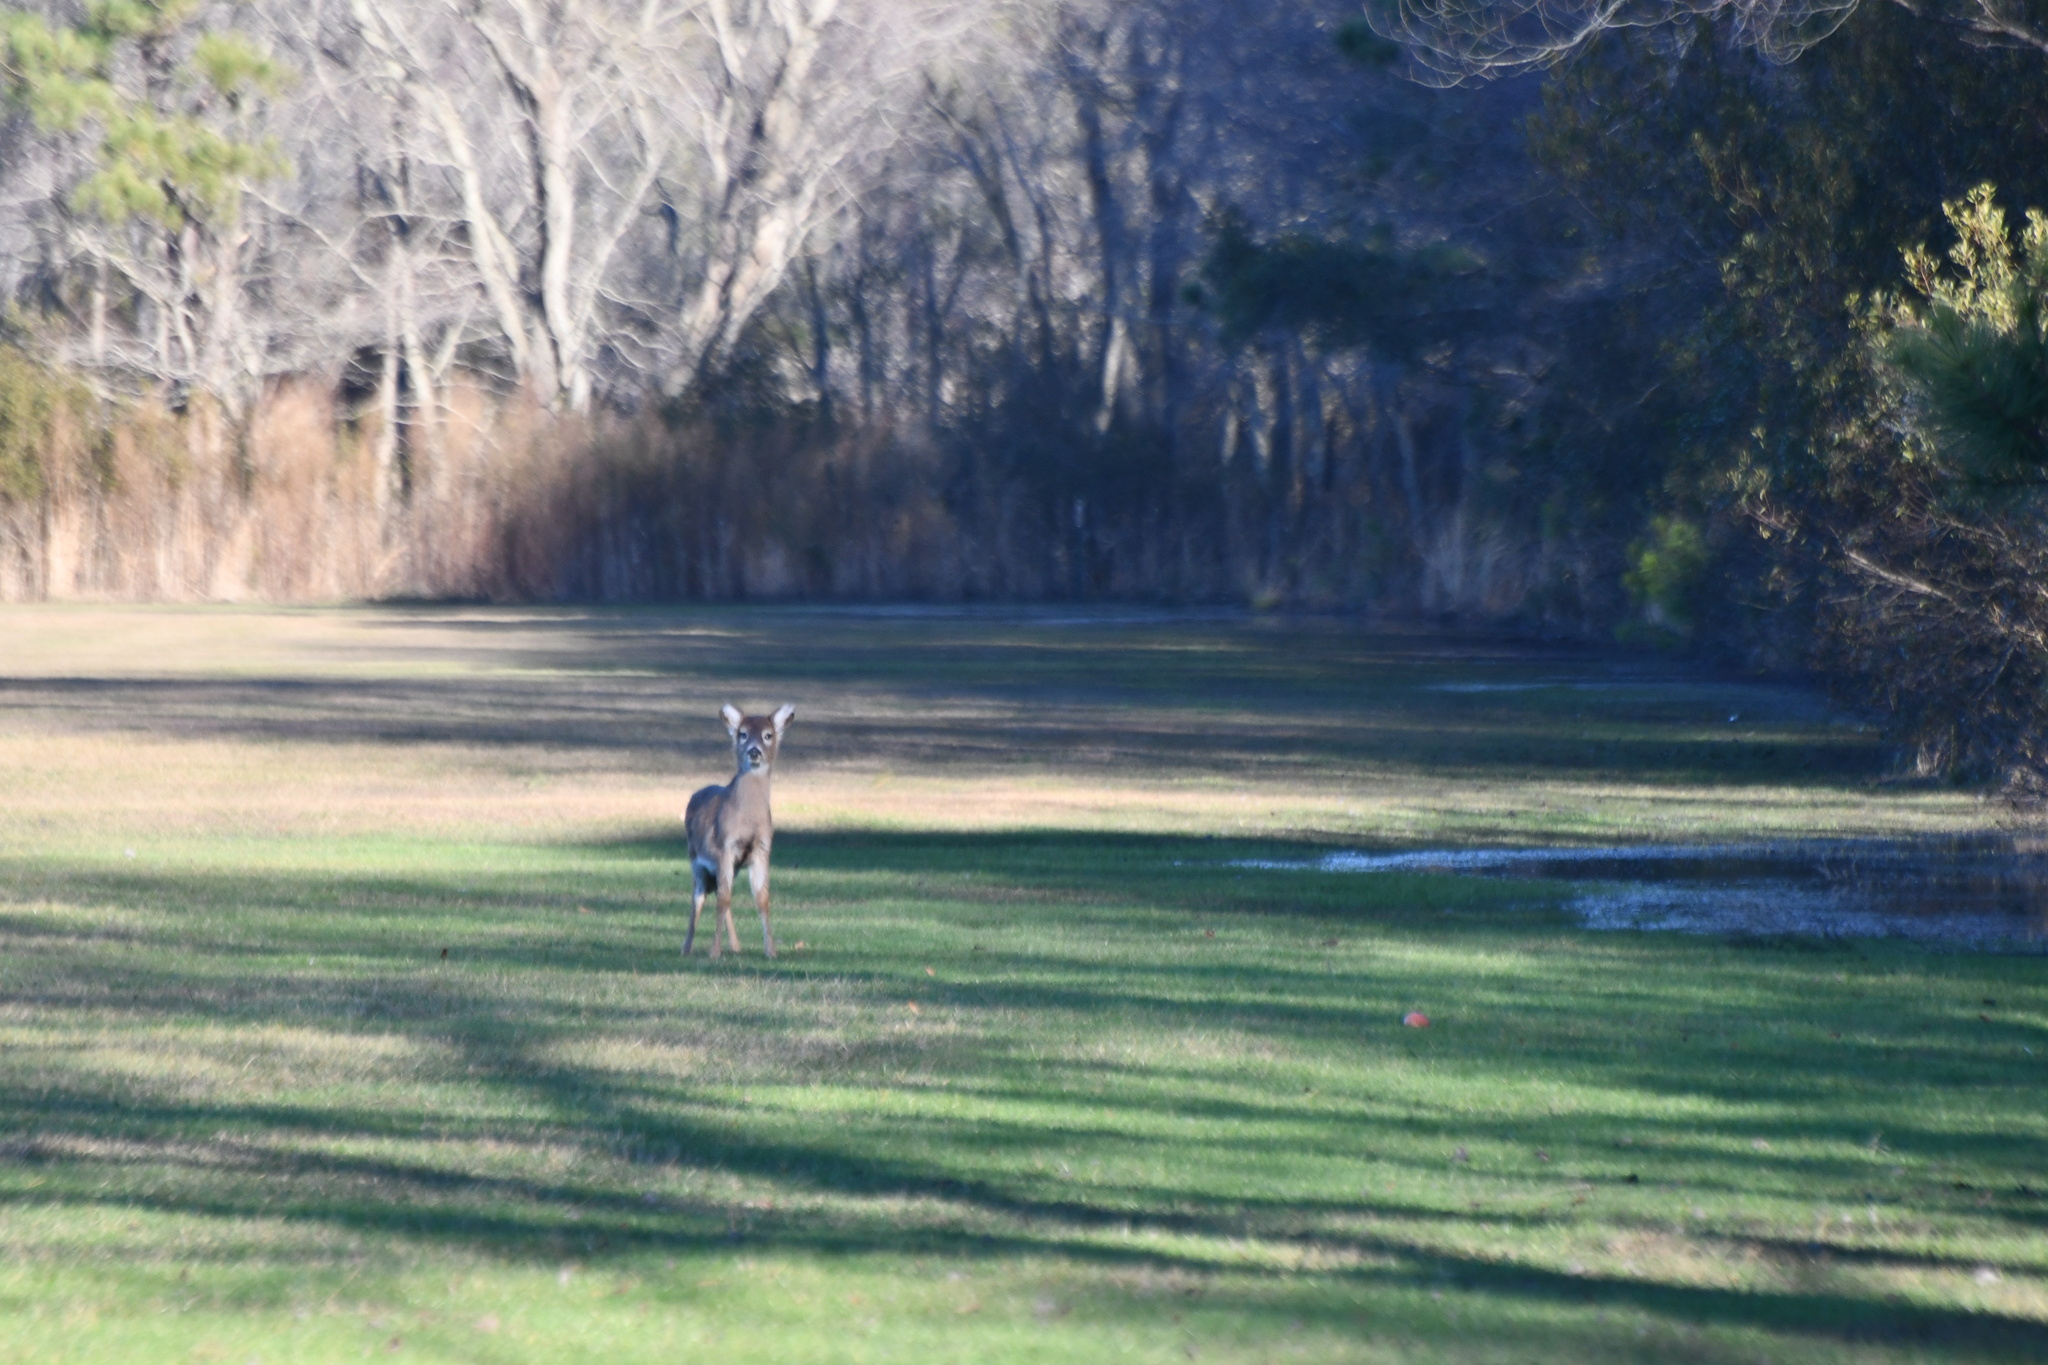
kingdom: Animalia
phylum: Chordata
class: Mammalia
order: Artiodactyla
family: Cervidae
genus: Odocoileus
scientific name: Odocoileus virginianus
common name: White-tailed deer
